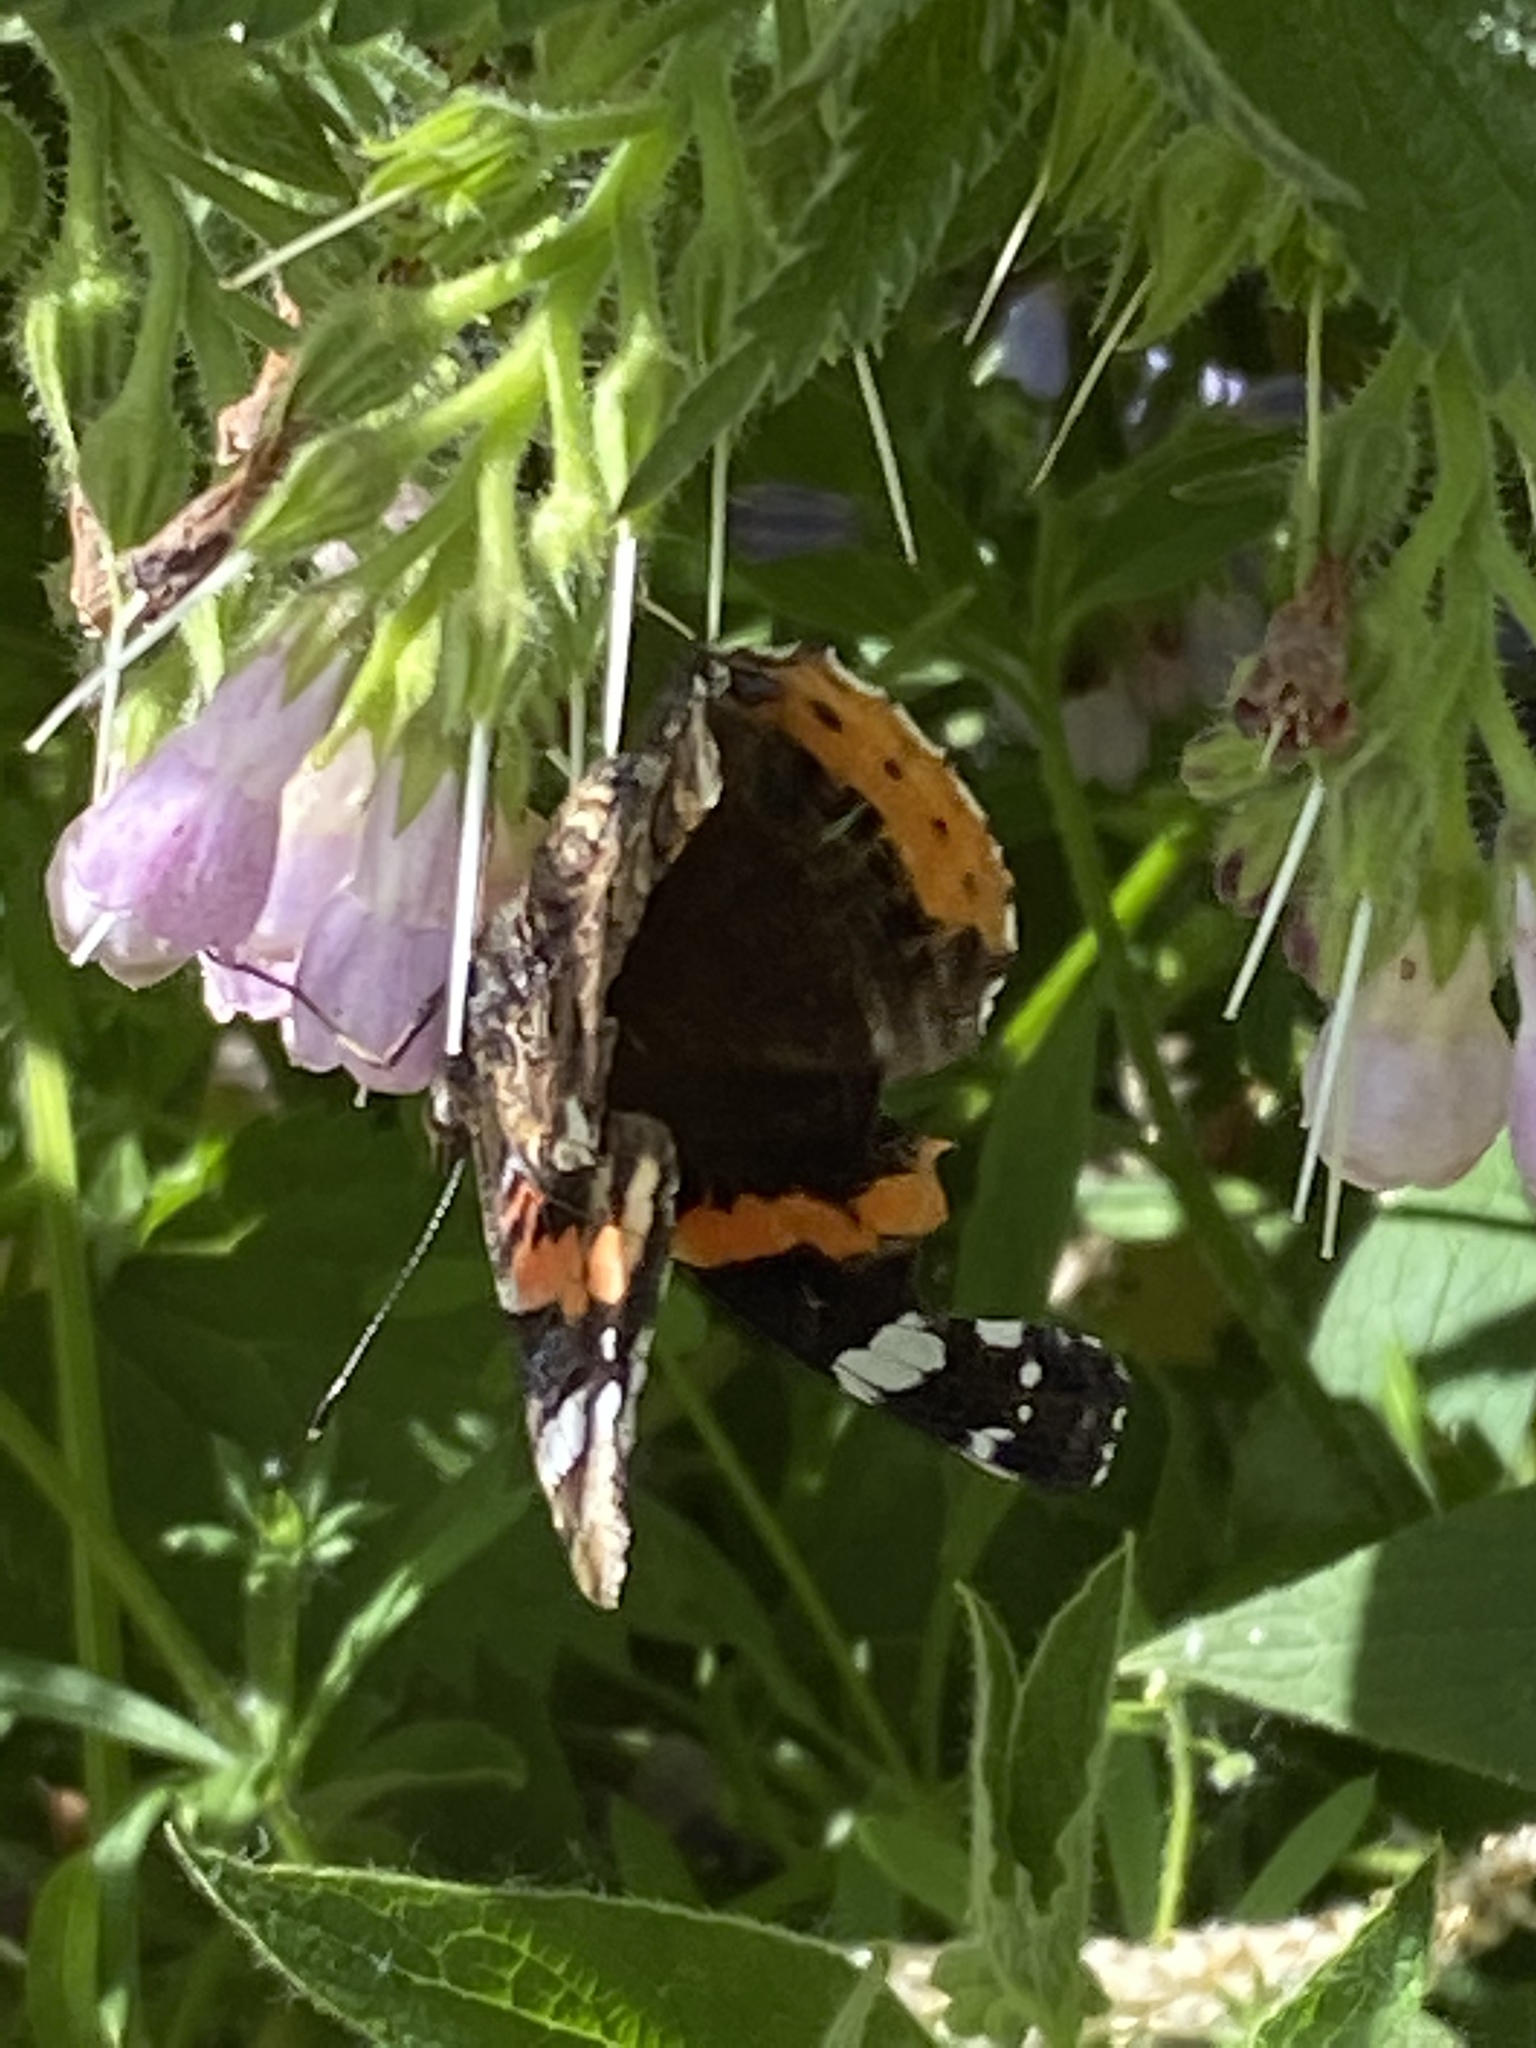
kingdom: Animalia
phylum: Arthropoda
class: Insecta
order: Lepidoptera
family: Nymphalidae
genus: Vanessa
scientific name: Vanessa atalanta
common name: Red admiral
